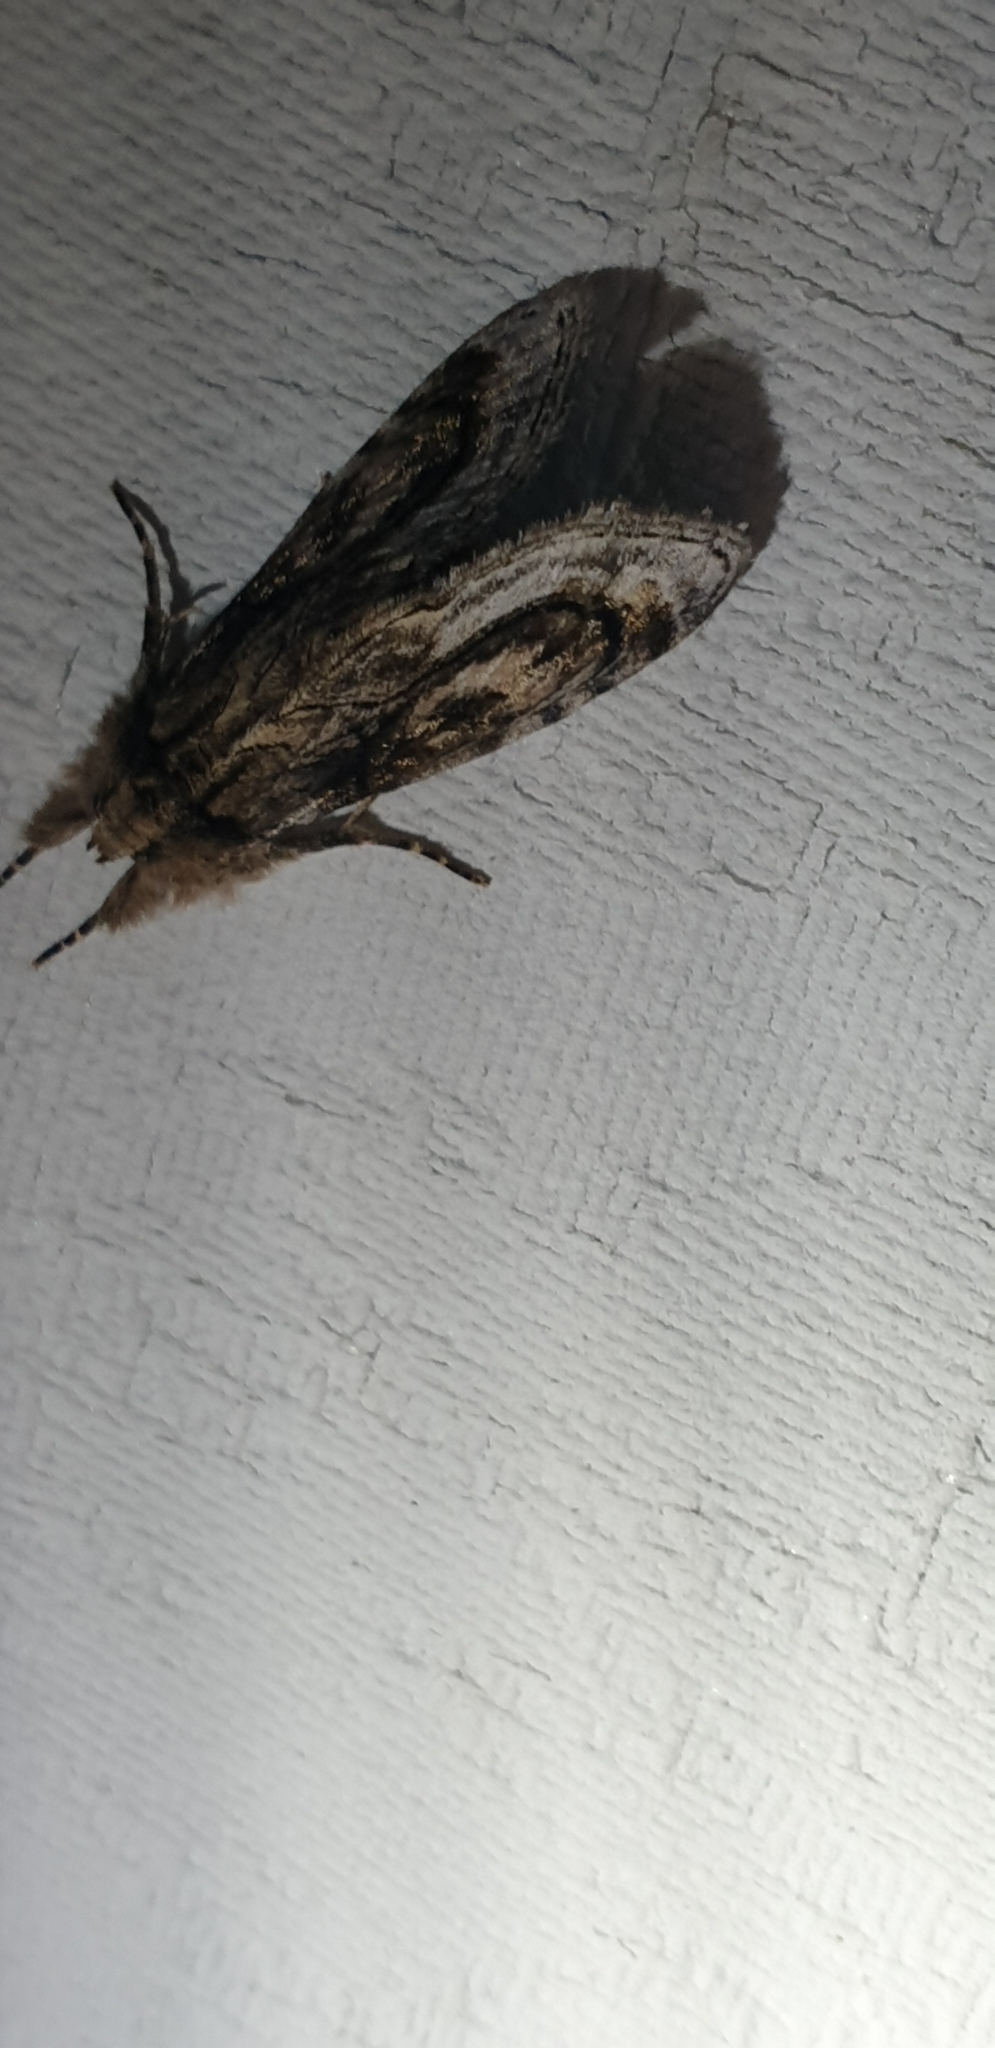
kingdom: Animalia
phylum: Arthropoda
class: Insecta
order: Lepidoptera
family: Noctuidae
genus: Zalissa
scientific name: Zalissa catocalina
